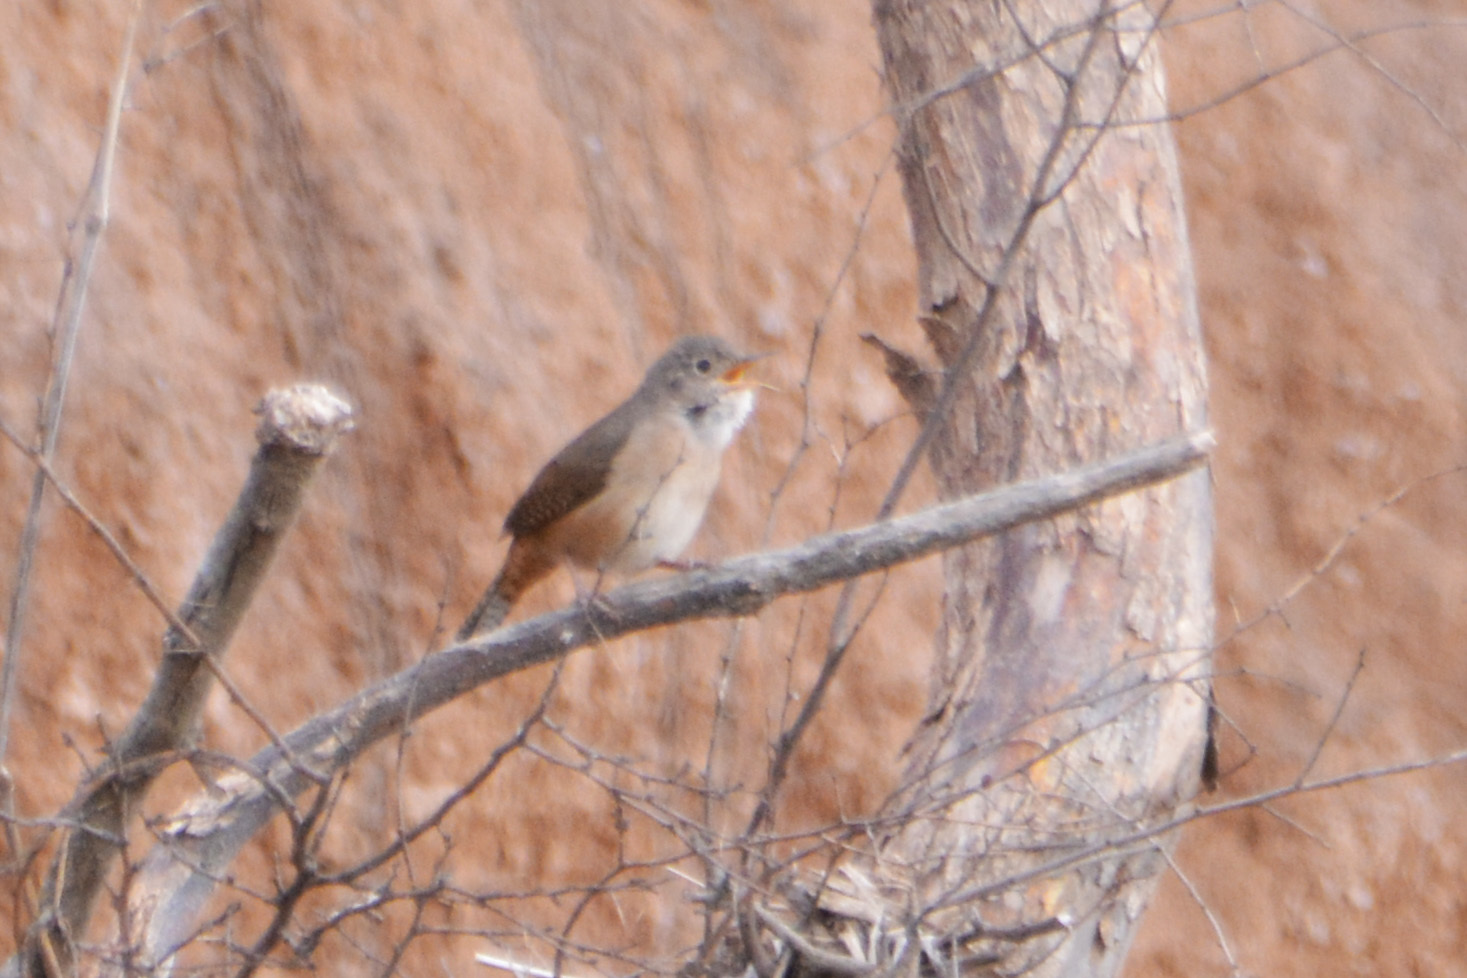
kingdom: Animalia
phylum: Chordata
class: Aves
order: Passeriformes
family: Troglodytidae
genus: Troglodytes
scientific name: Troglodytes aedon
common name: House wren
